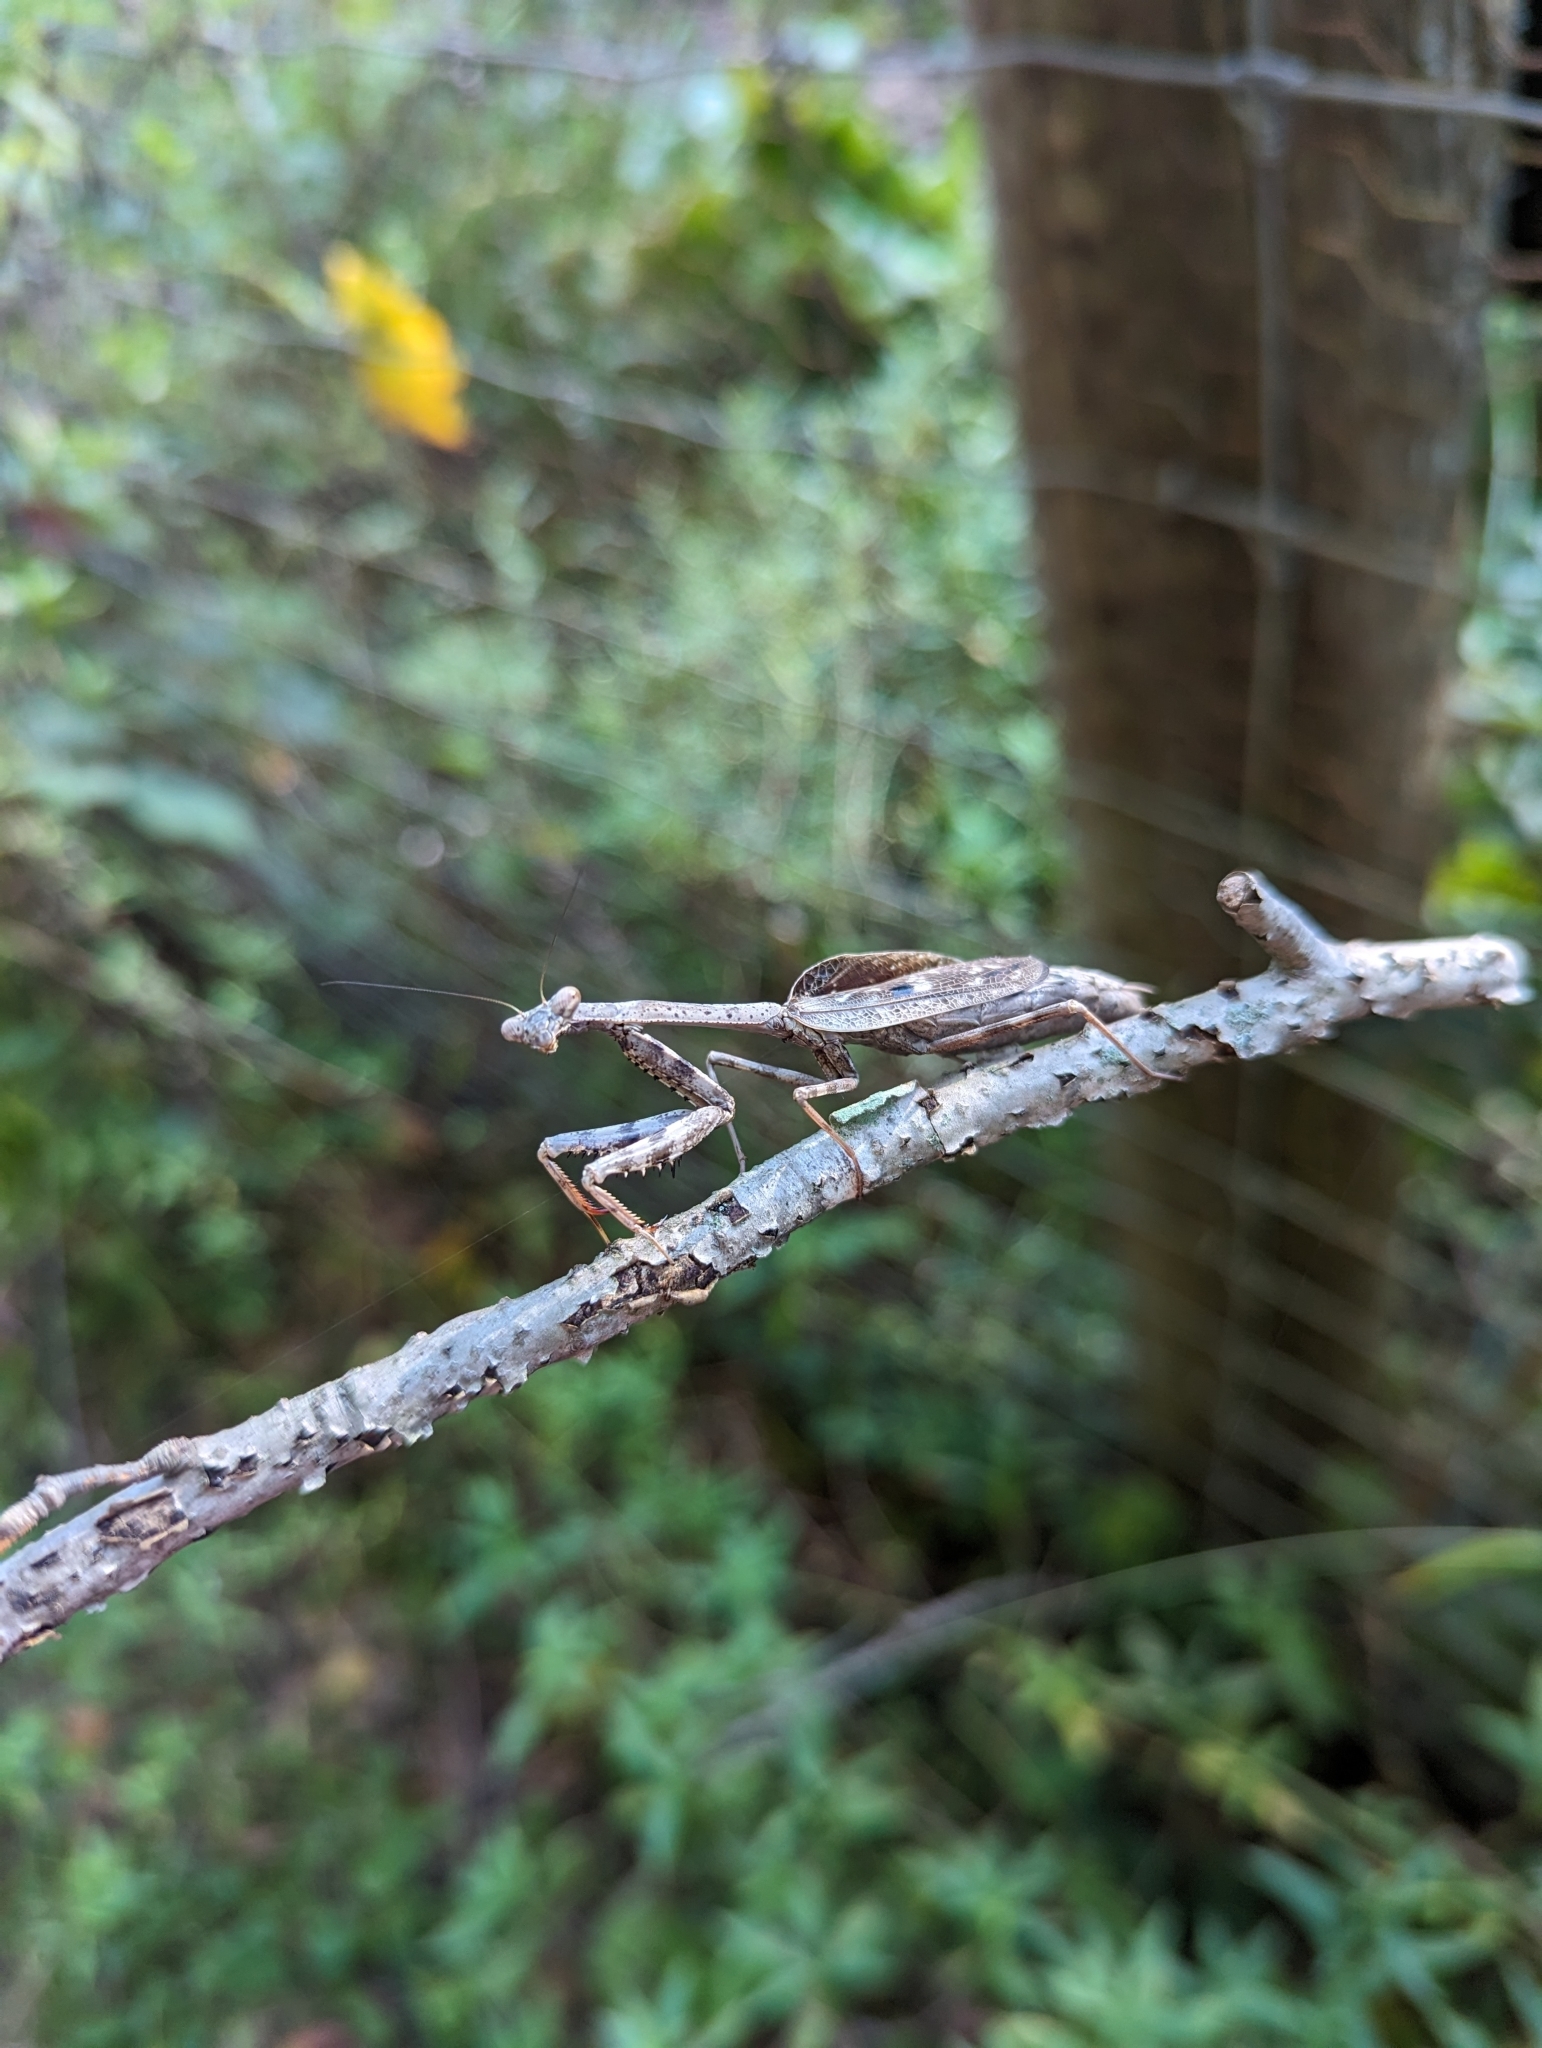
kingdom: Animalia
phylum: Arthropoda
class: Insecta
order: Mantodea
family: Mantidae
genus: Stagmomantis
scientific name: Stagmomantis carolina
